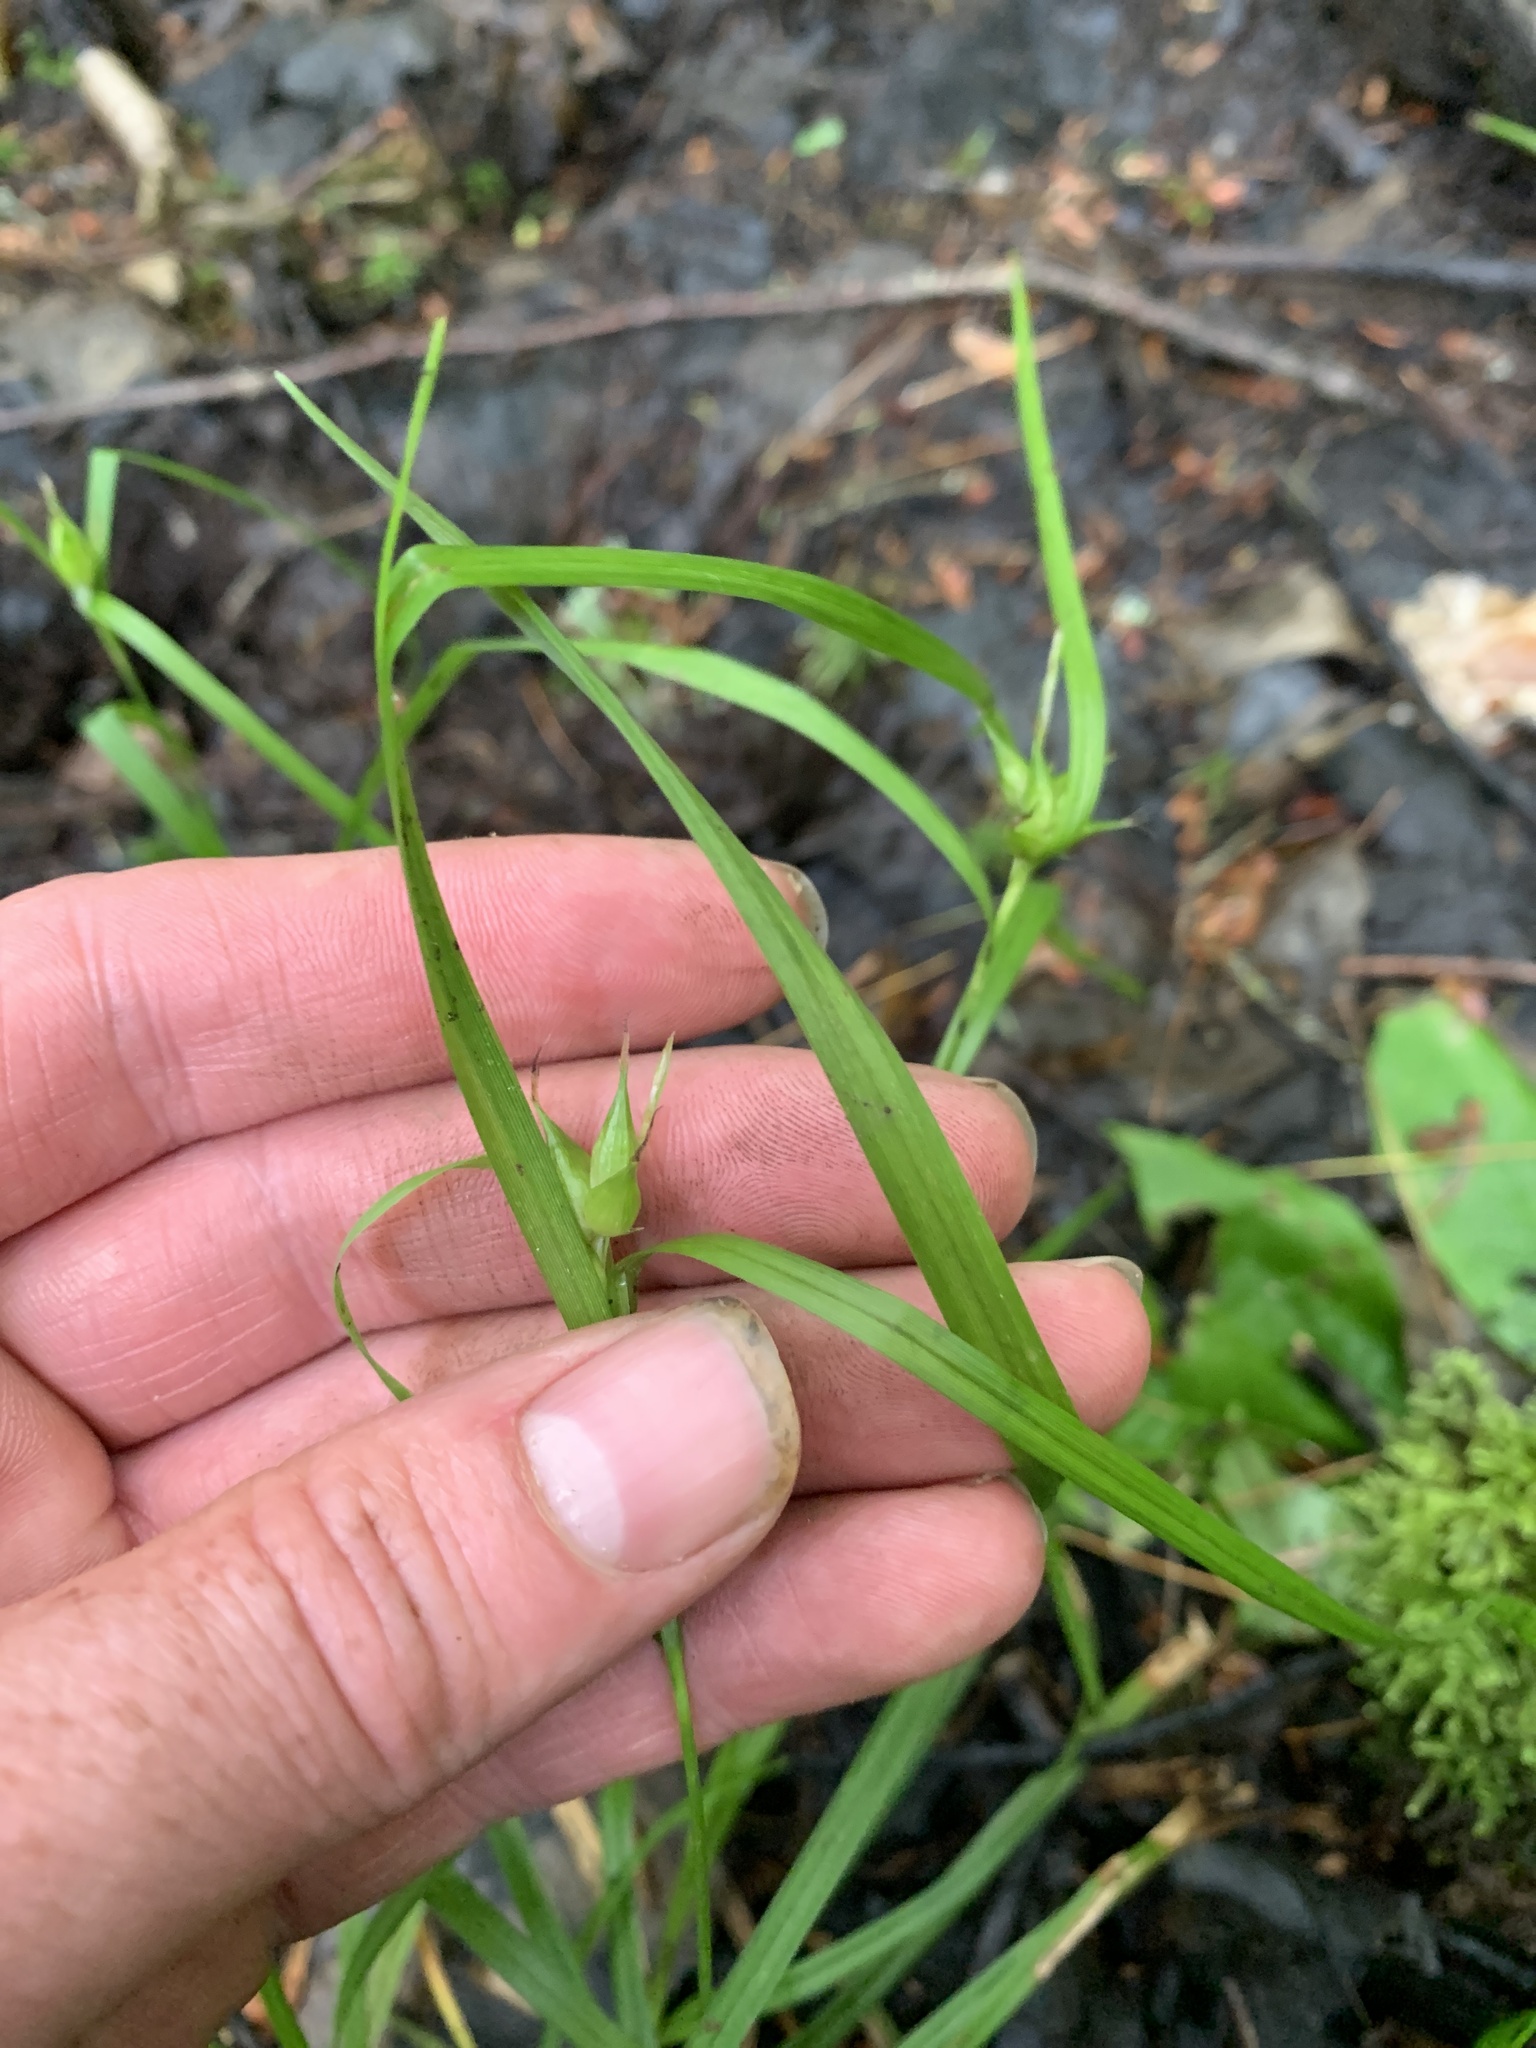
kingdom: Plantae
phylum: Tracheophyta
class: Liliopsida
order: Poales
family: Cyperaceae
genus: Carex
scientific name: Carex intumescens
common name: Greater bladder sedge
